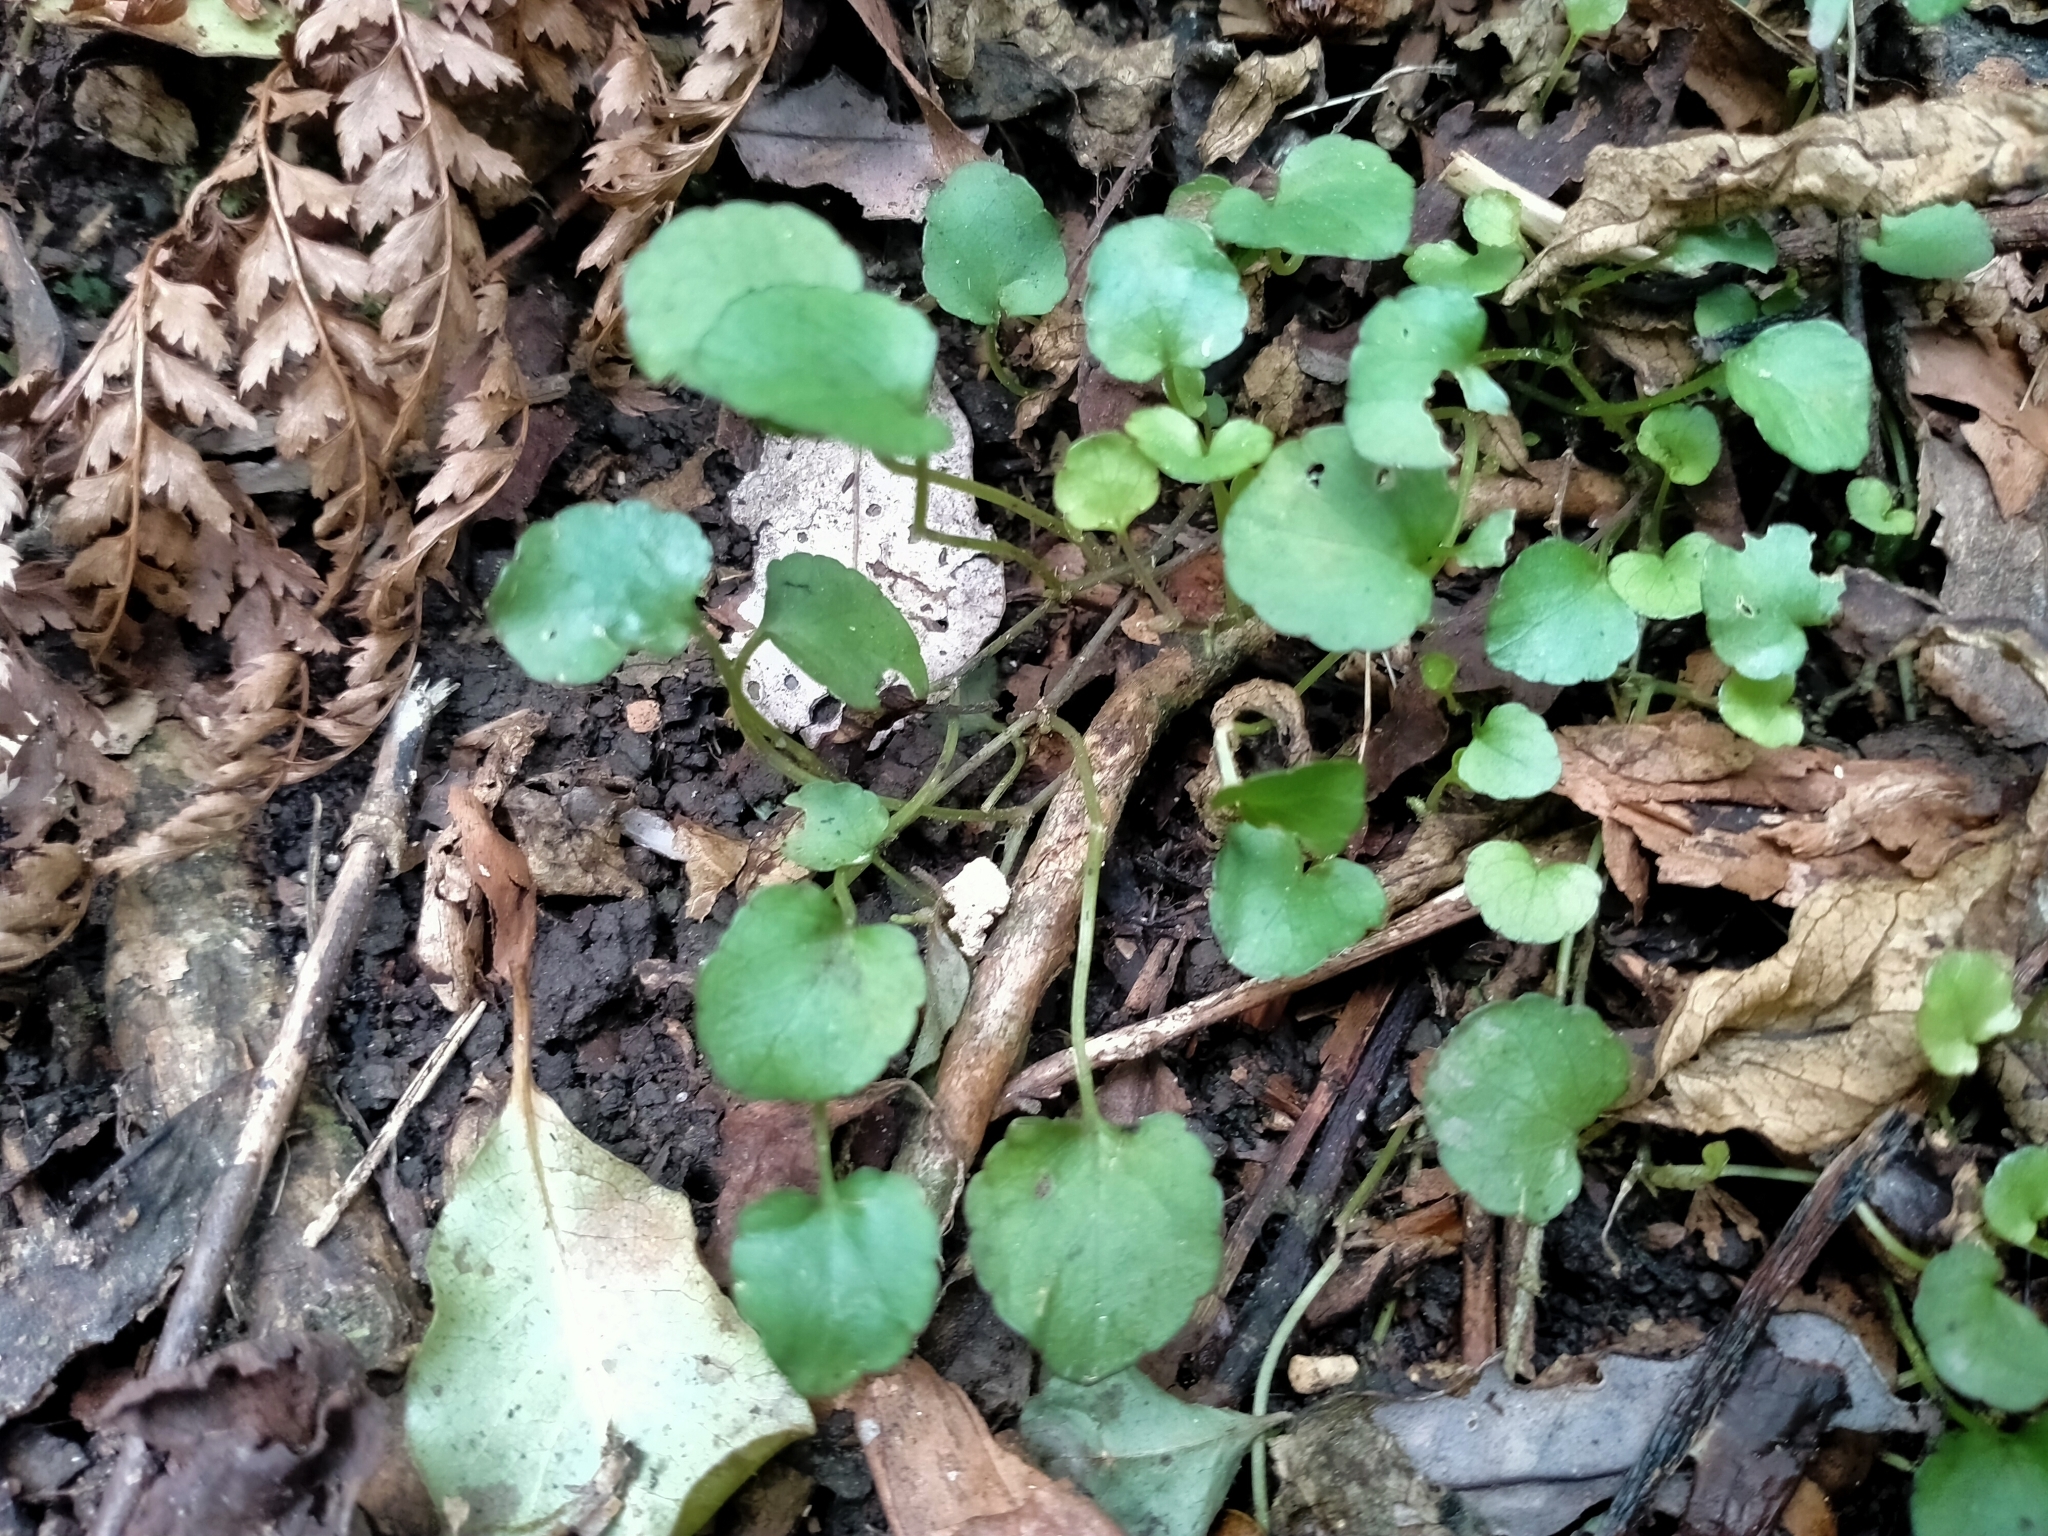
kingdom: Plantae
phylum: Tracheophyta
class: Magnoliopsida
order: Malpighiales
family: Violaceae
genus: Viola
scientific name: Viola filicaulis
